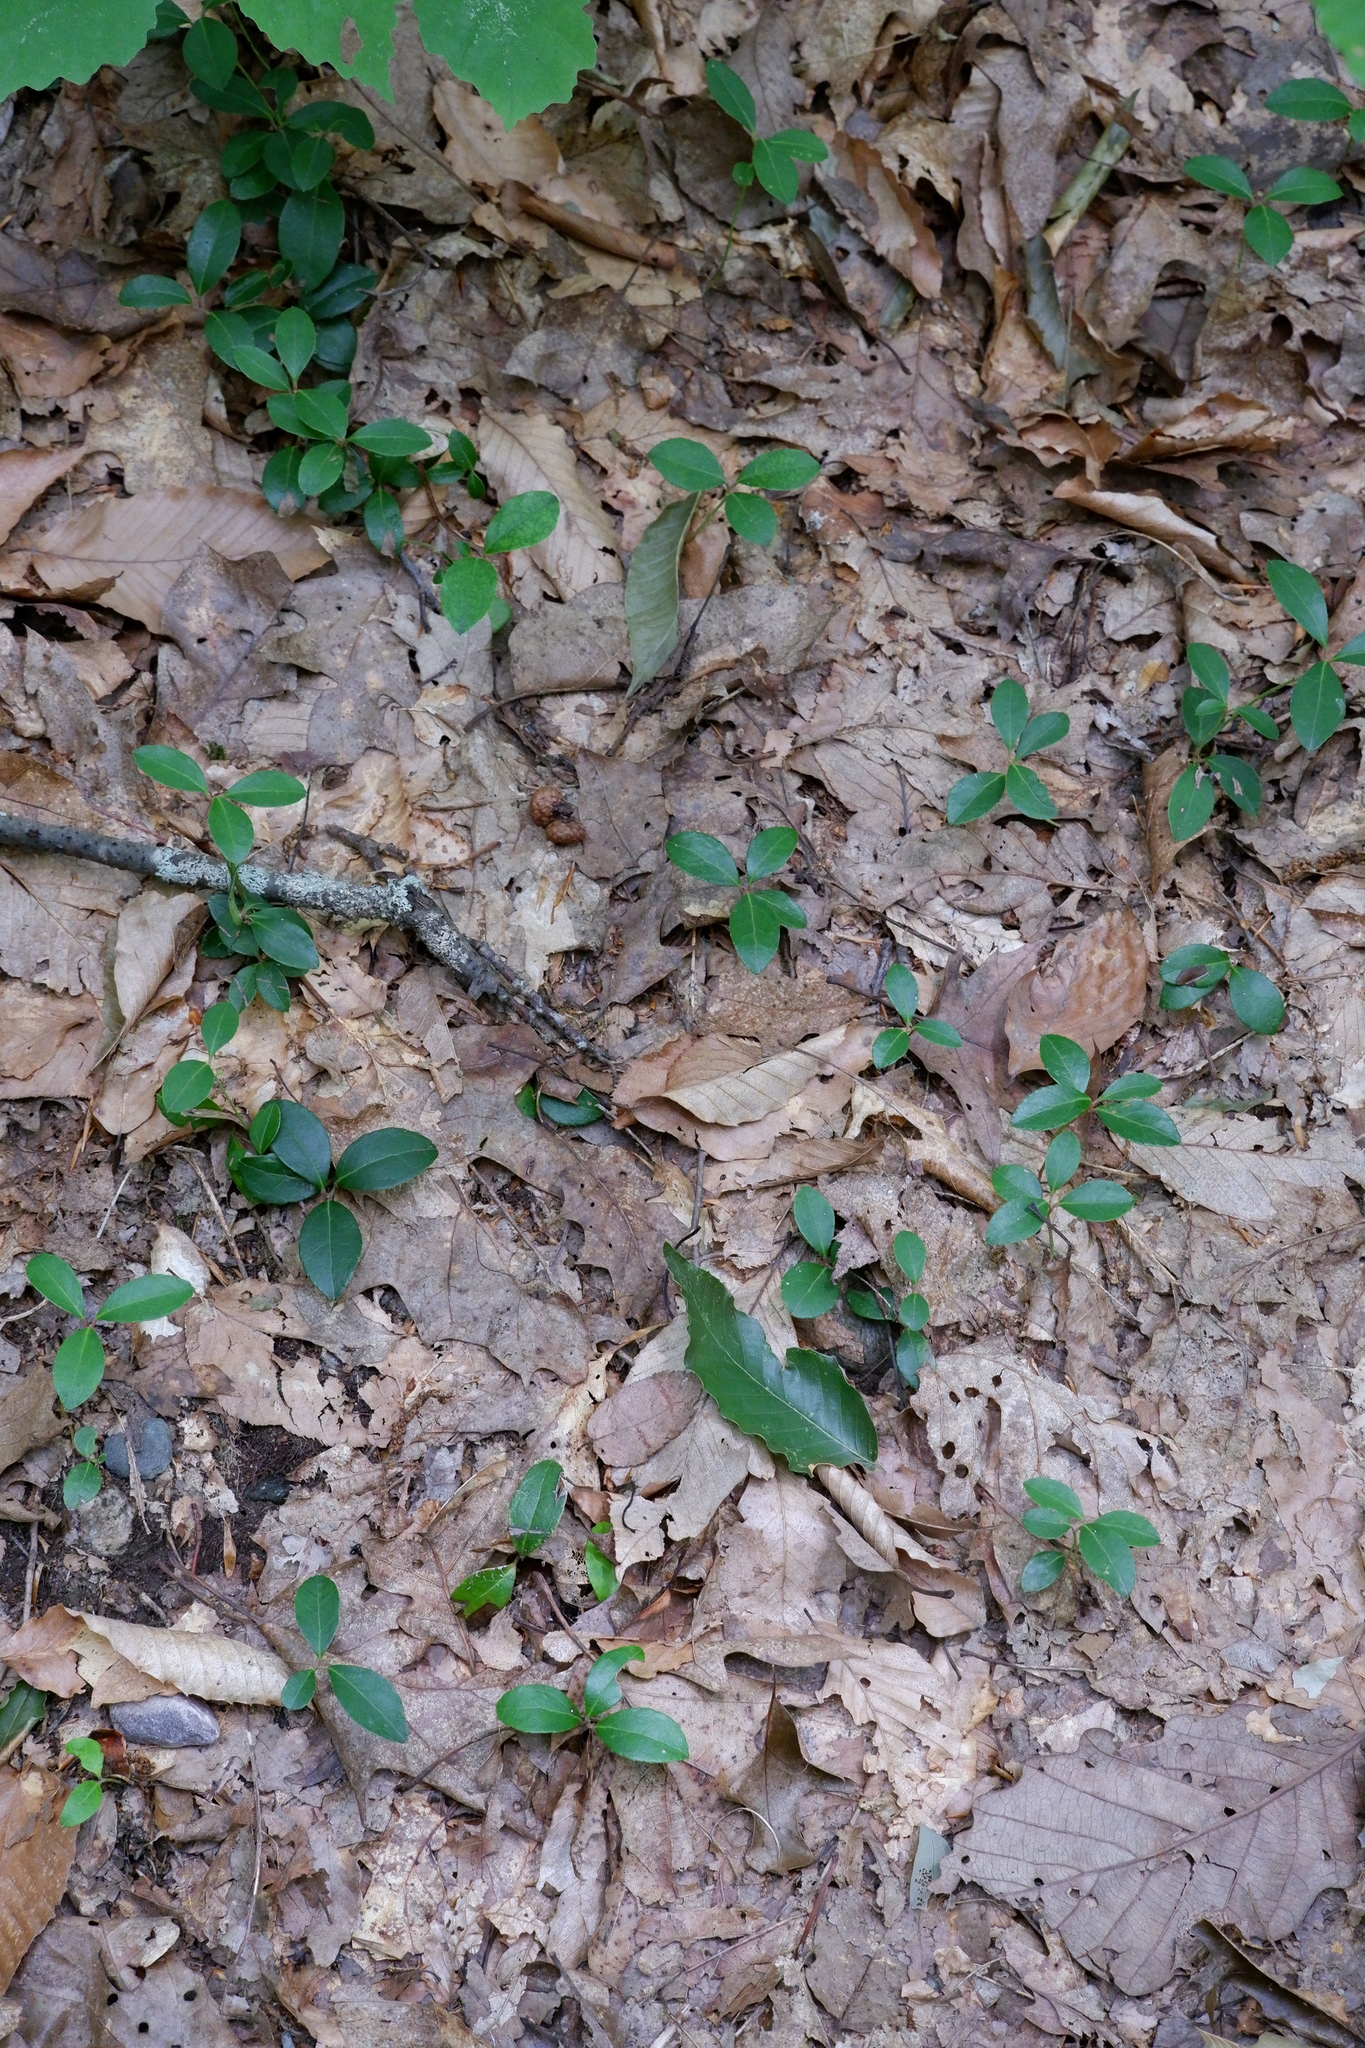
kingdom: Plantae
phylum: Tracheophyta
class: Magnoliopsida
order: Ericales
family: Ericaceae
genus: Gaultheria
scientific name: Gaultheria procumbens
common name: Checkerberry
